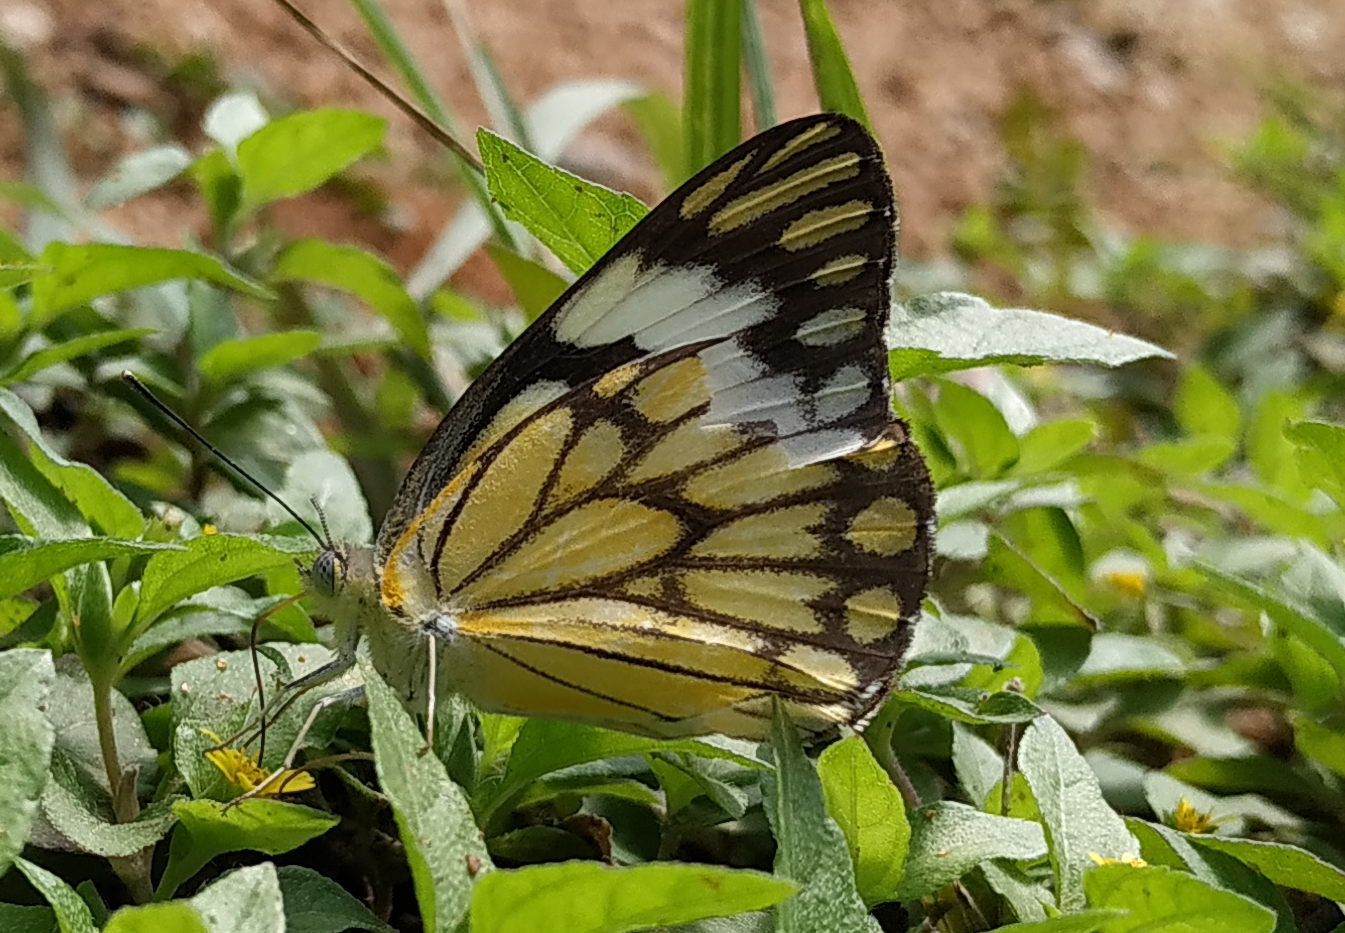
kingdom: Animalia
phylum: Arthropoda
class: Insecta
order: Lepidoptera
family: Pieridae
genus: Belenois
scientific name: Belenois aurota
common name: Brown-veined white
